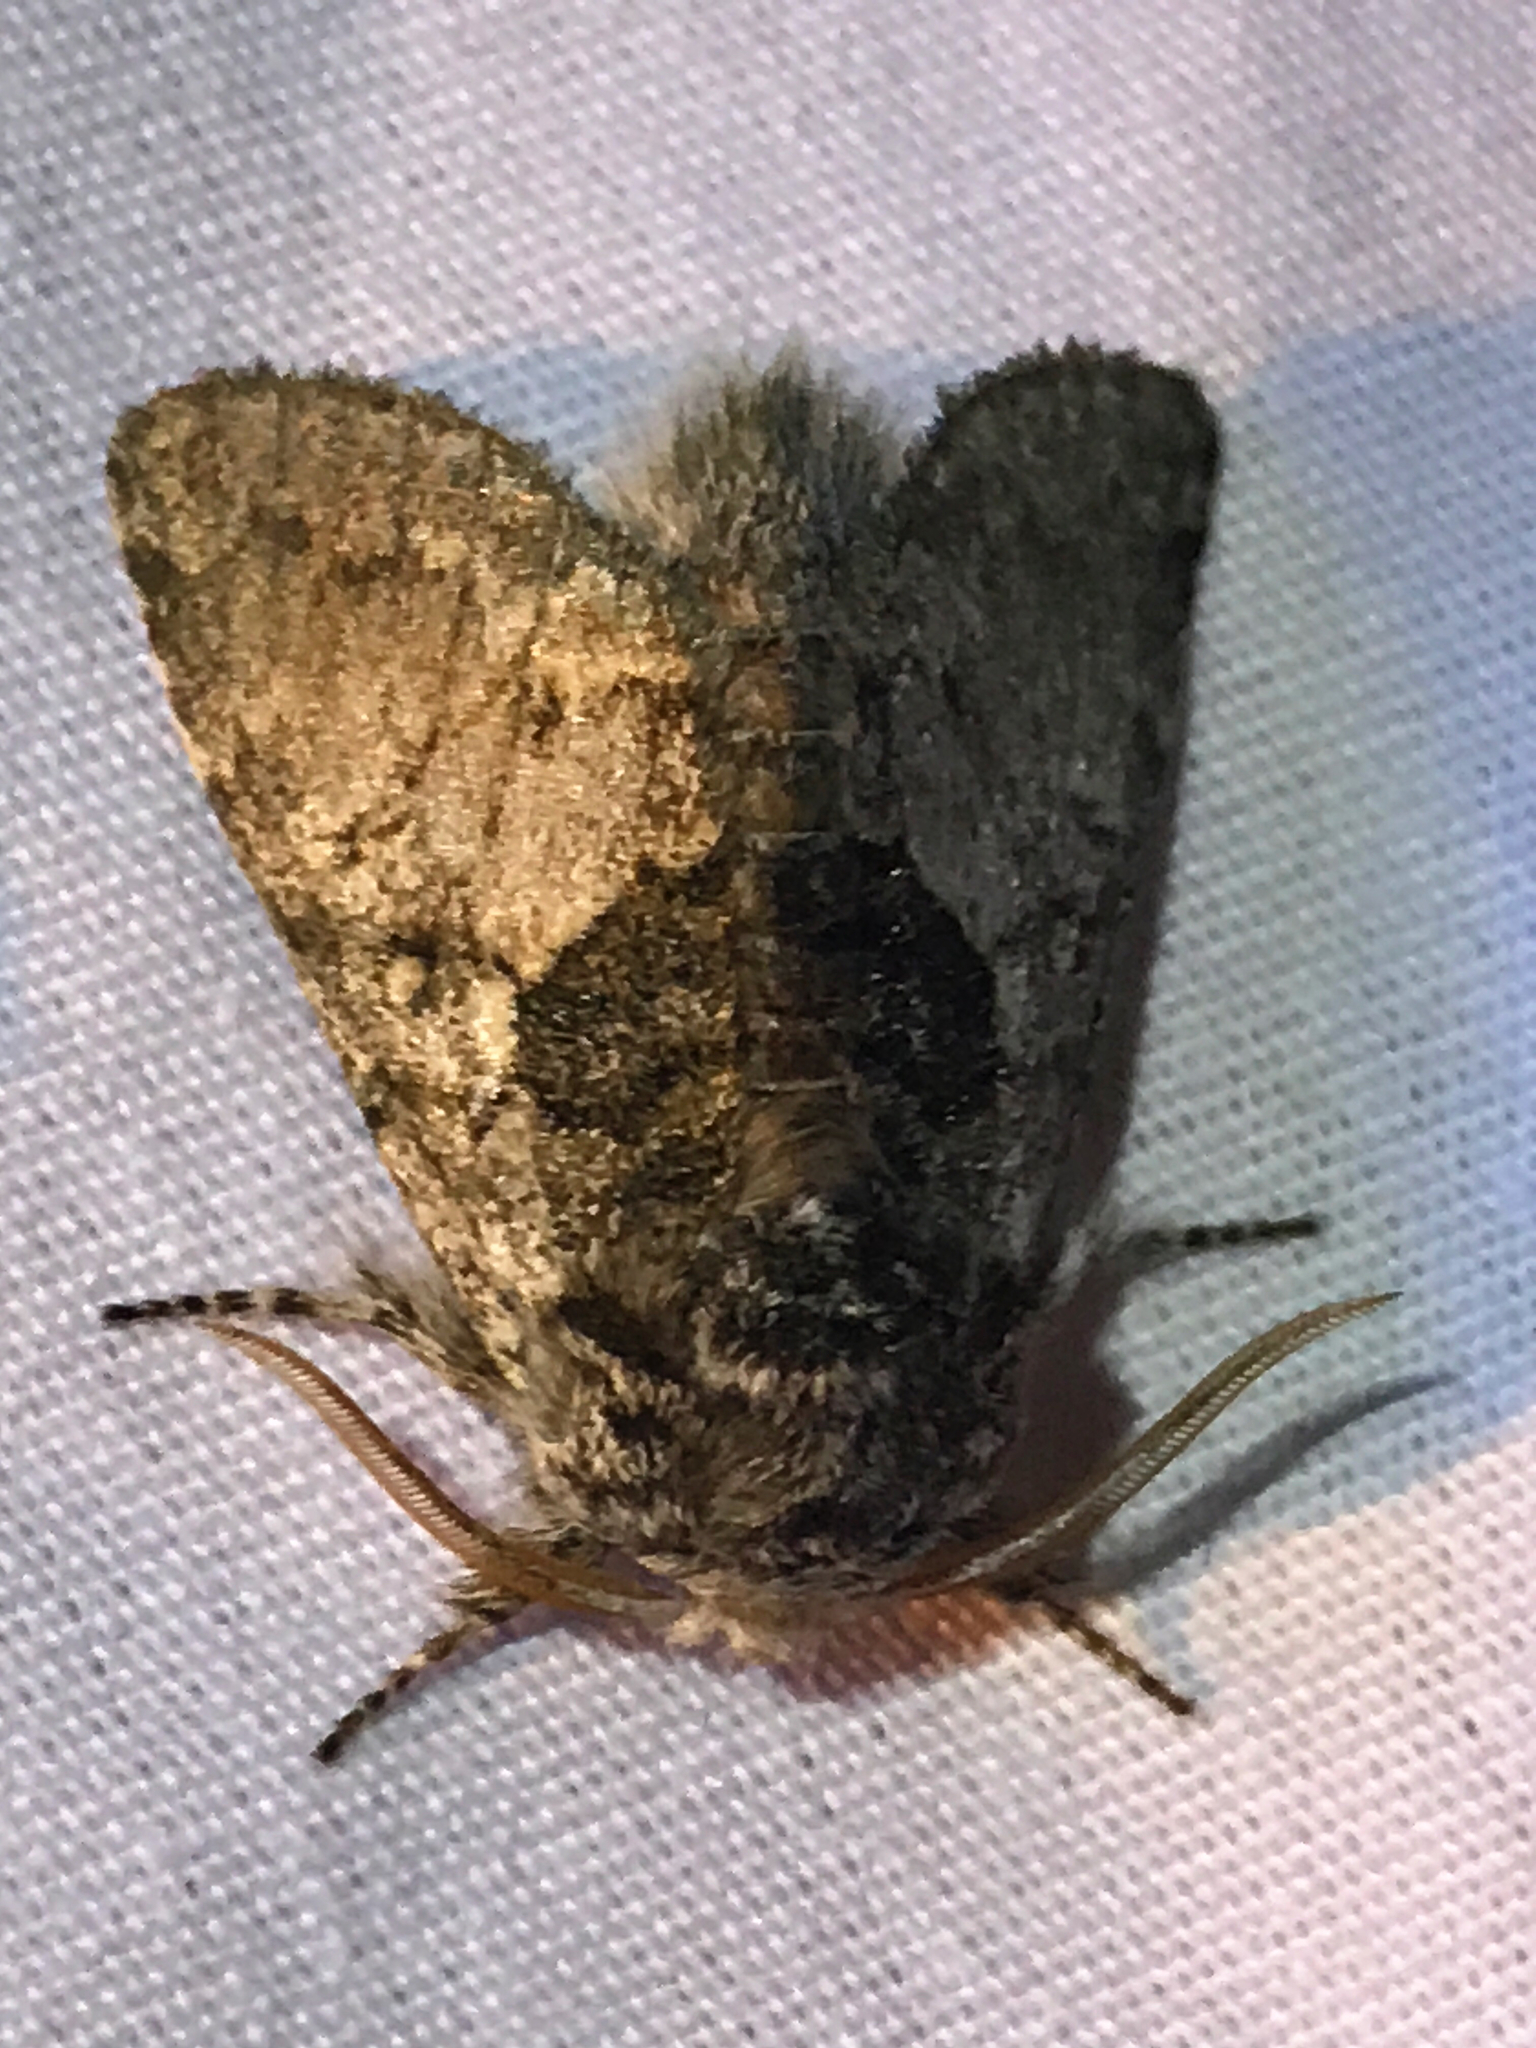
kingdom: Animalia
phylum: Arthropoda
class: Insecta
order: Lepidoptera
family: Noctuidae
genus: Colocasia
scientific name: Colocasia flavicornis
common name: Saddled yellowhorn
